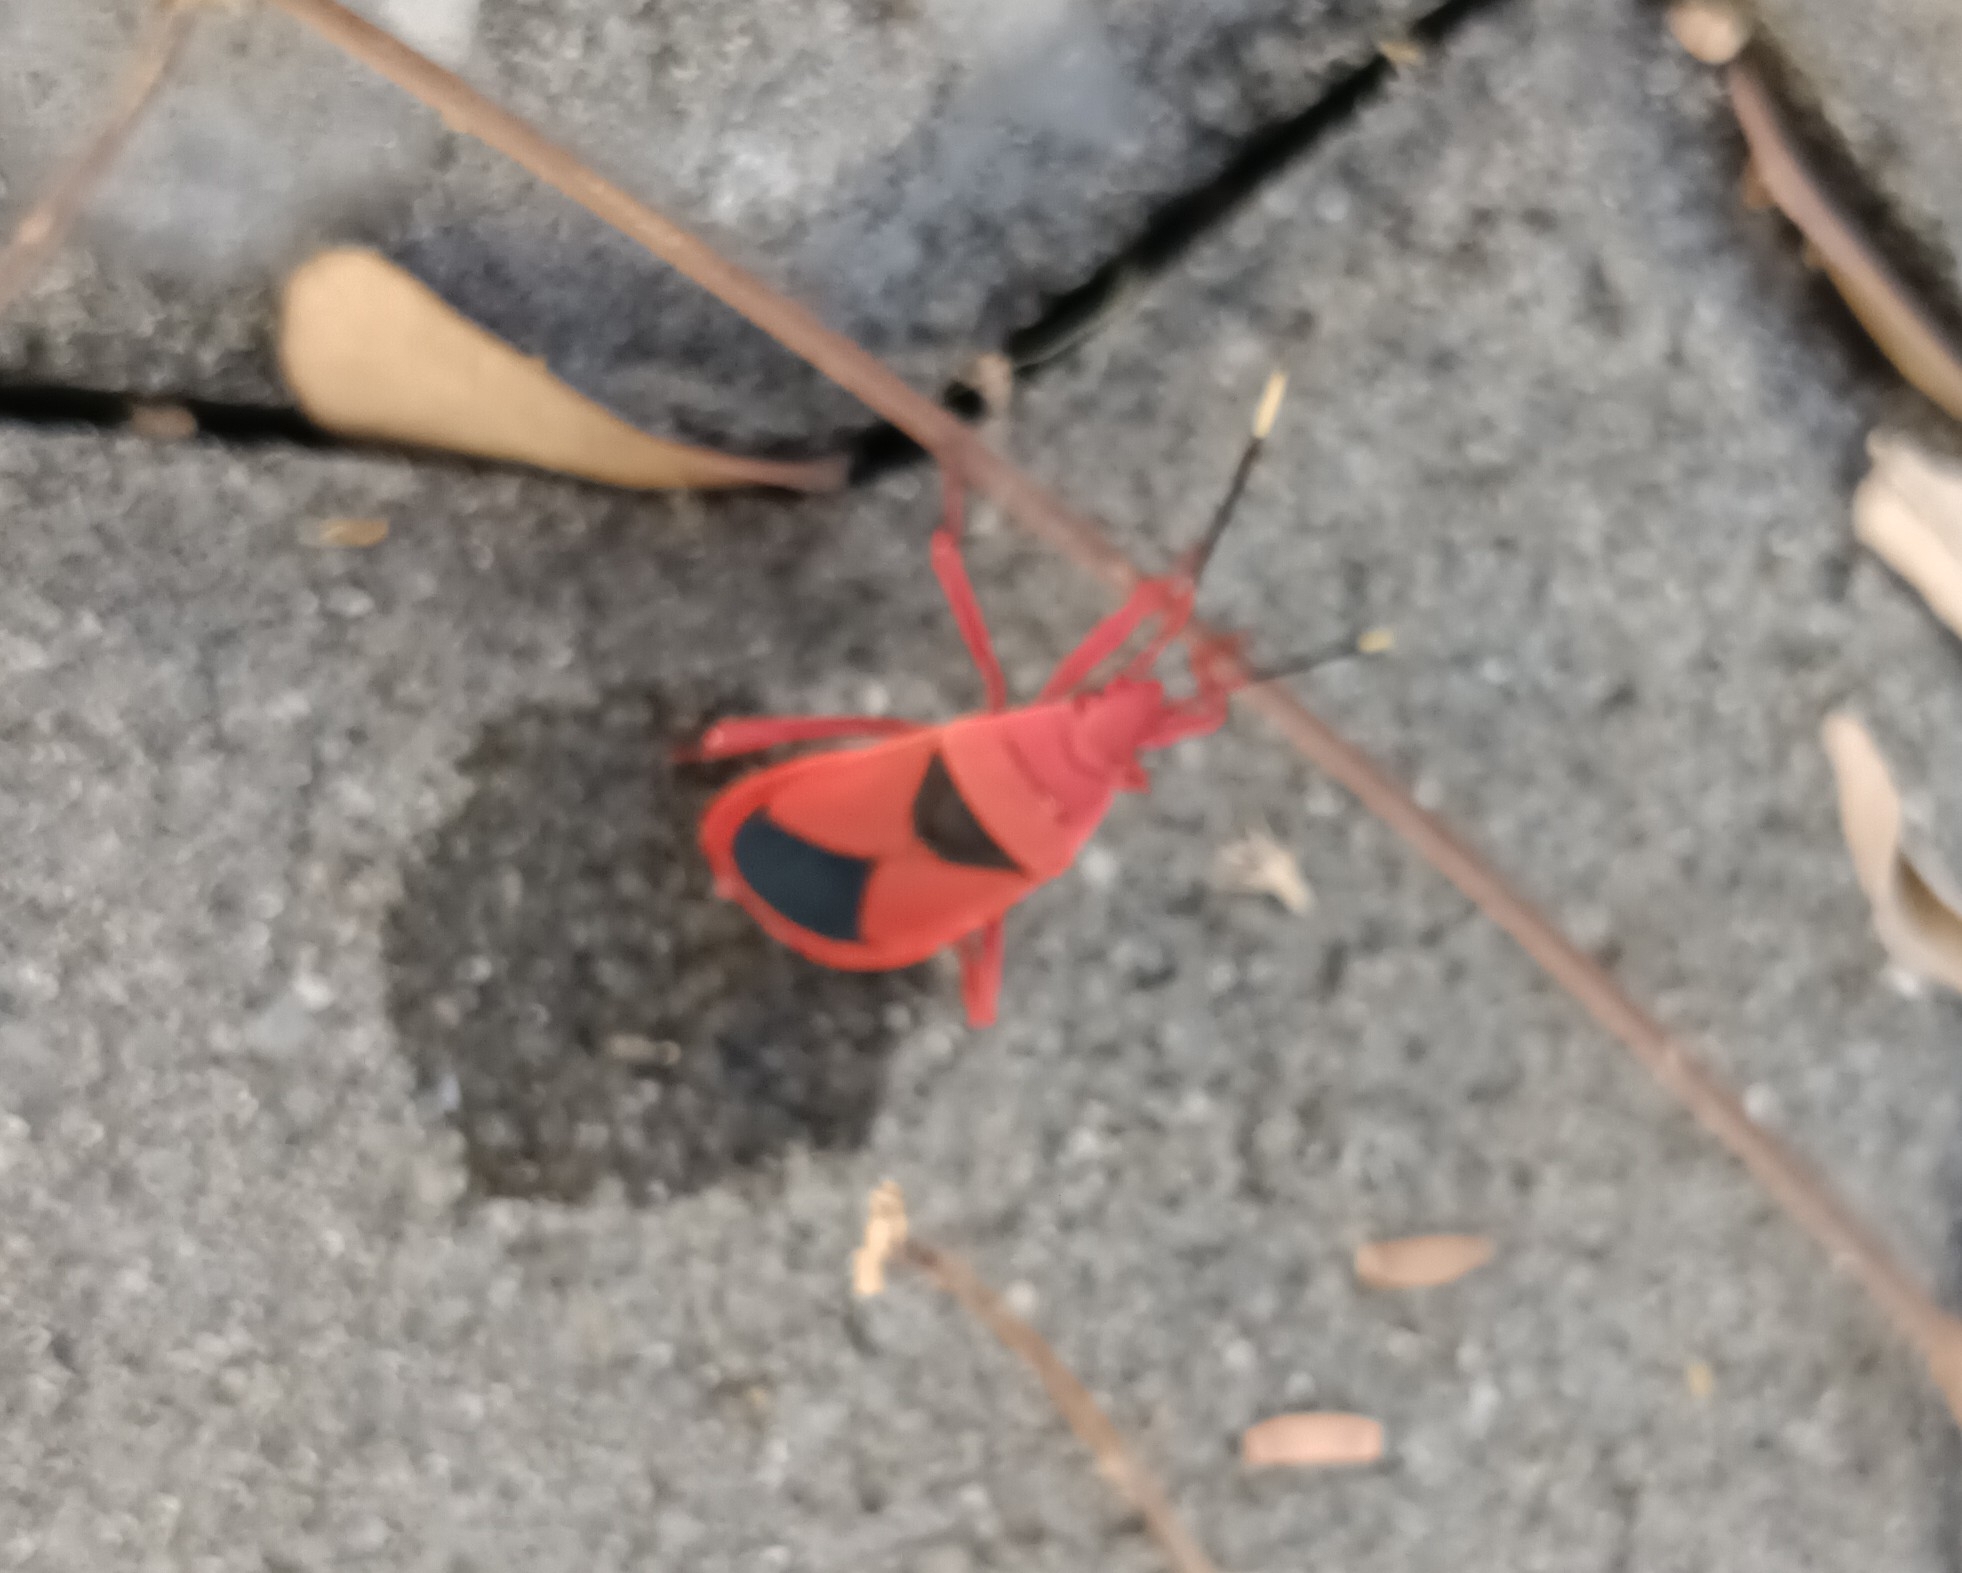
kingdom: Animalia
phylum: Arthropoda
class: Insecta
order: Hemiptera
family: Pyrrhocoridae
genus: Probergrothius
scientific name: Probergrothius
